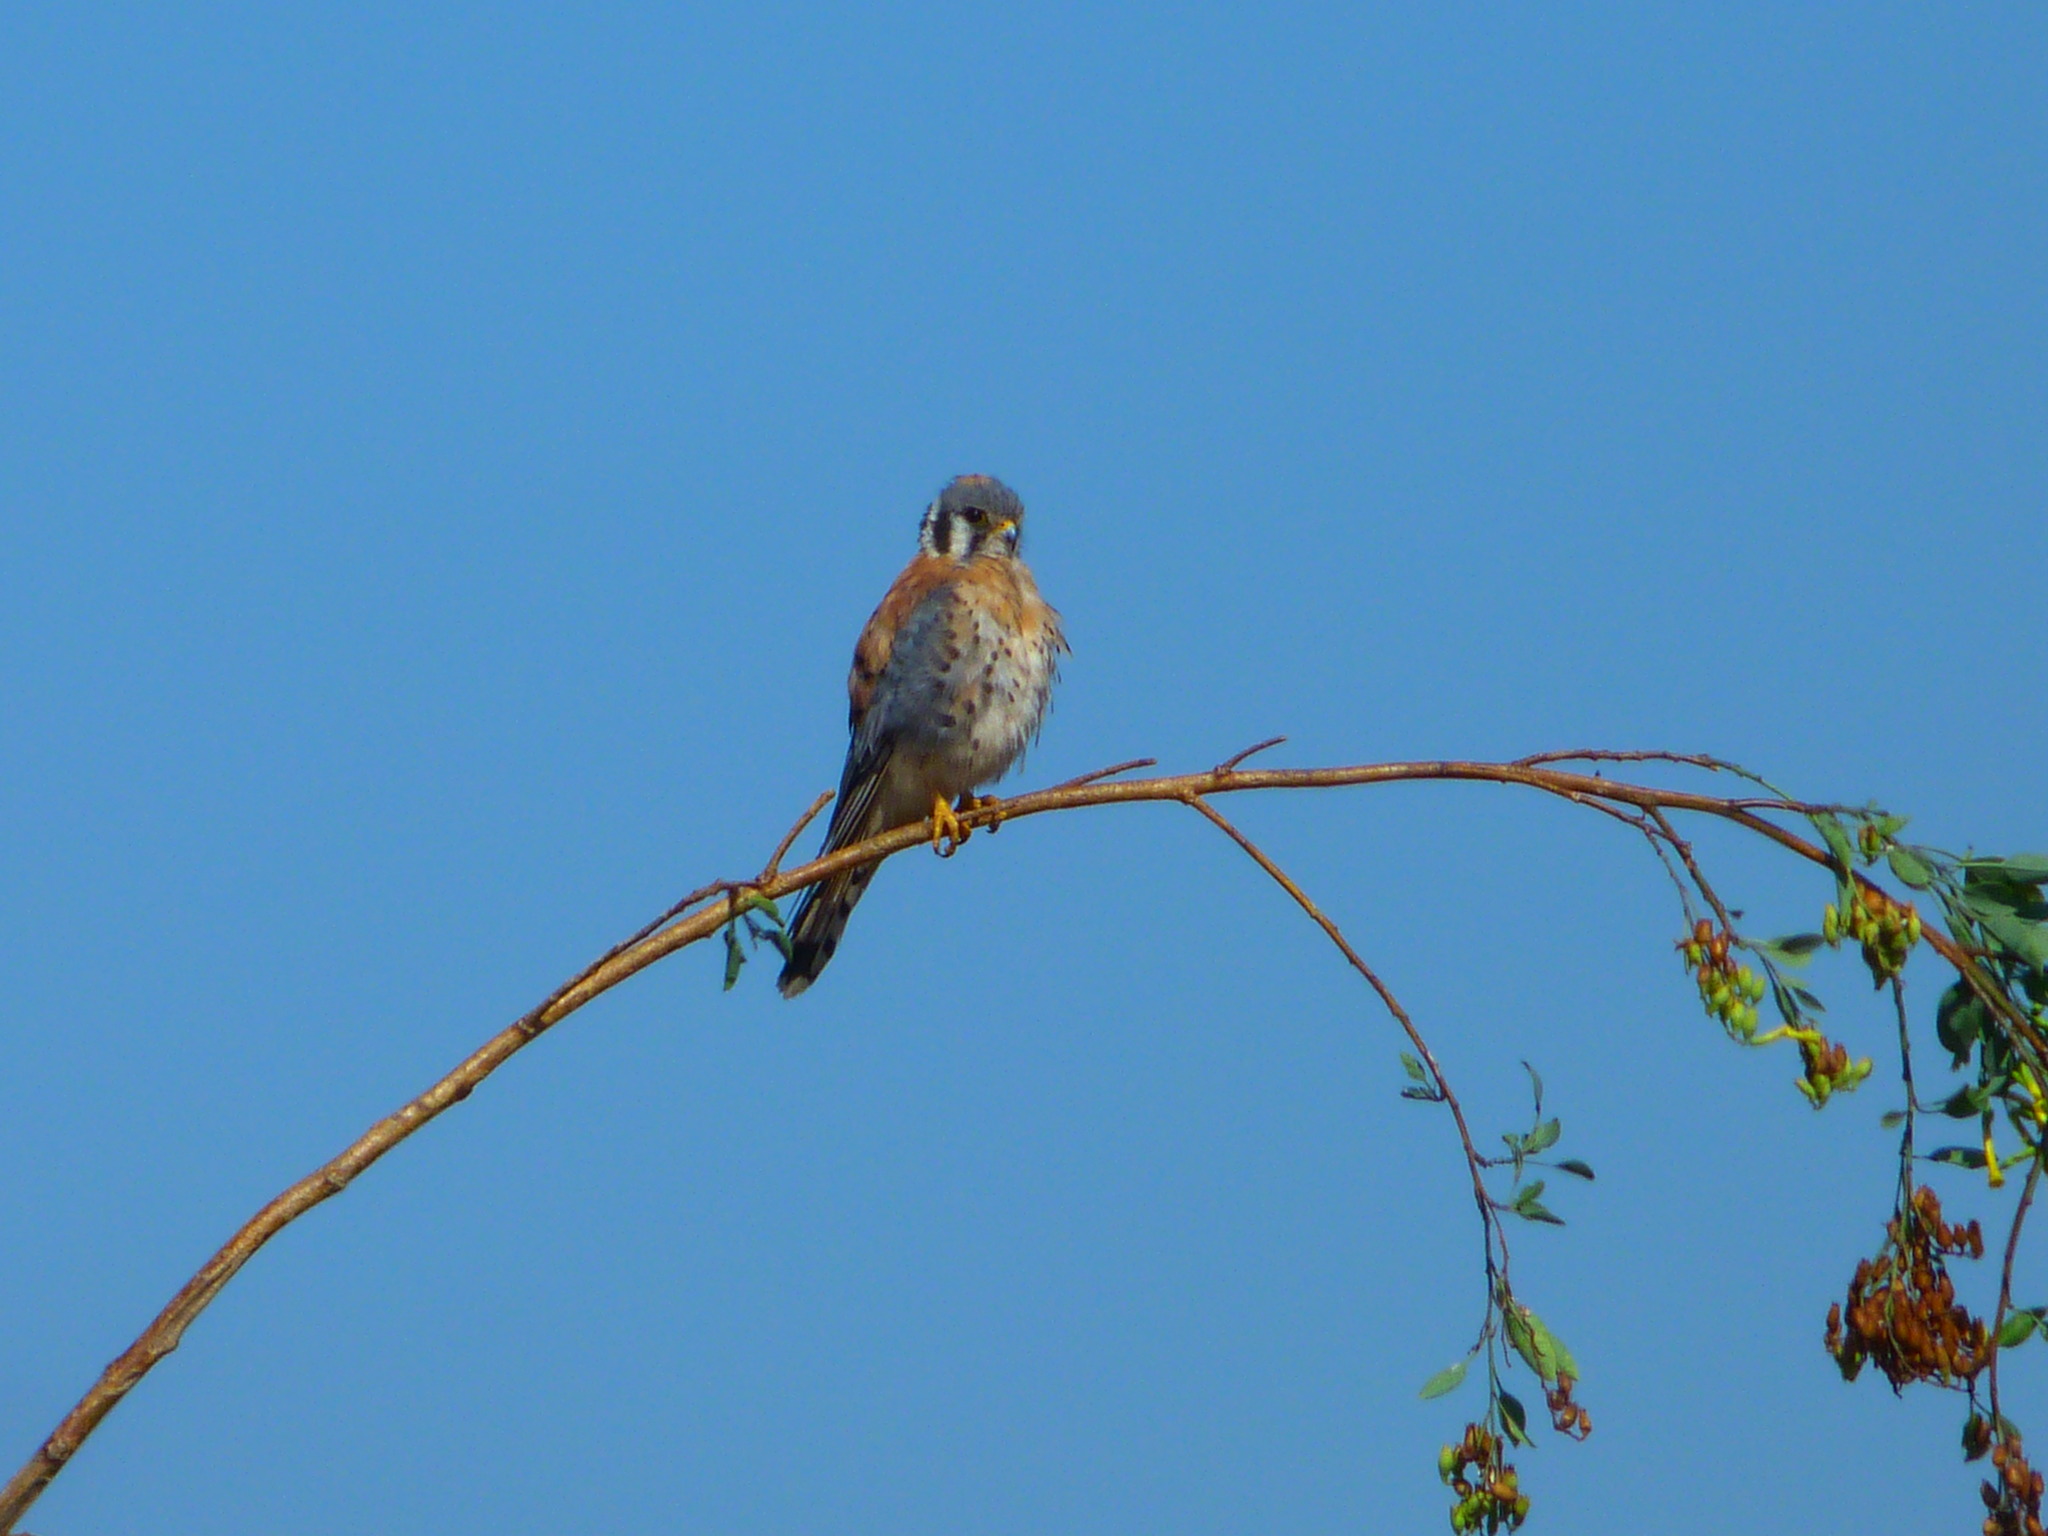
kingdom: Animalia
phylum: Chordata
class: Aves
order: Falconiformes
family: Falconidae
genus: Falco
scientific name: Falco sparverius
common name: American kestrel
